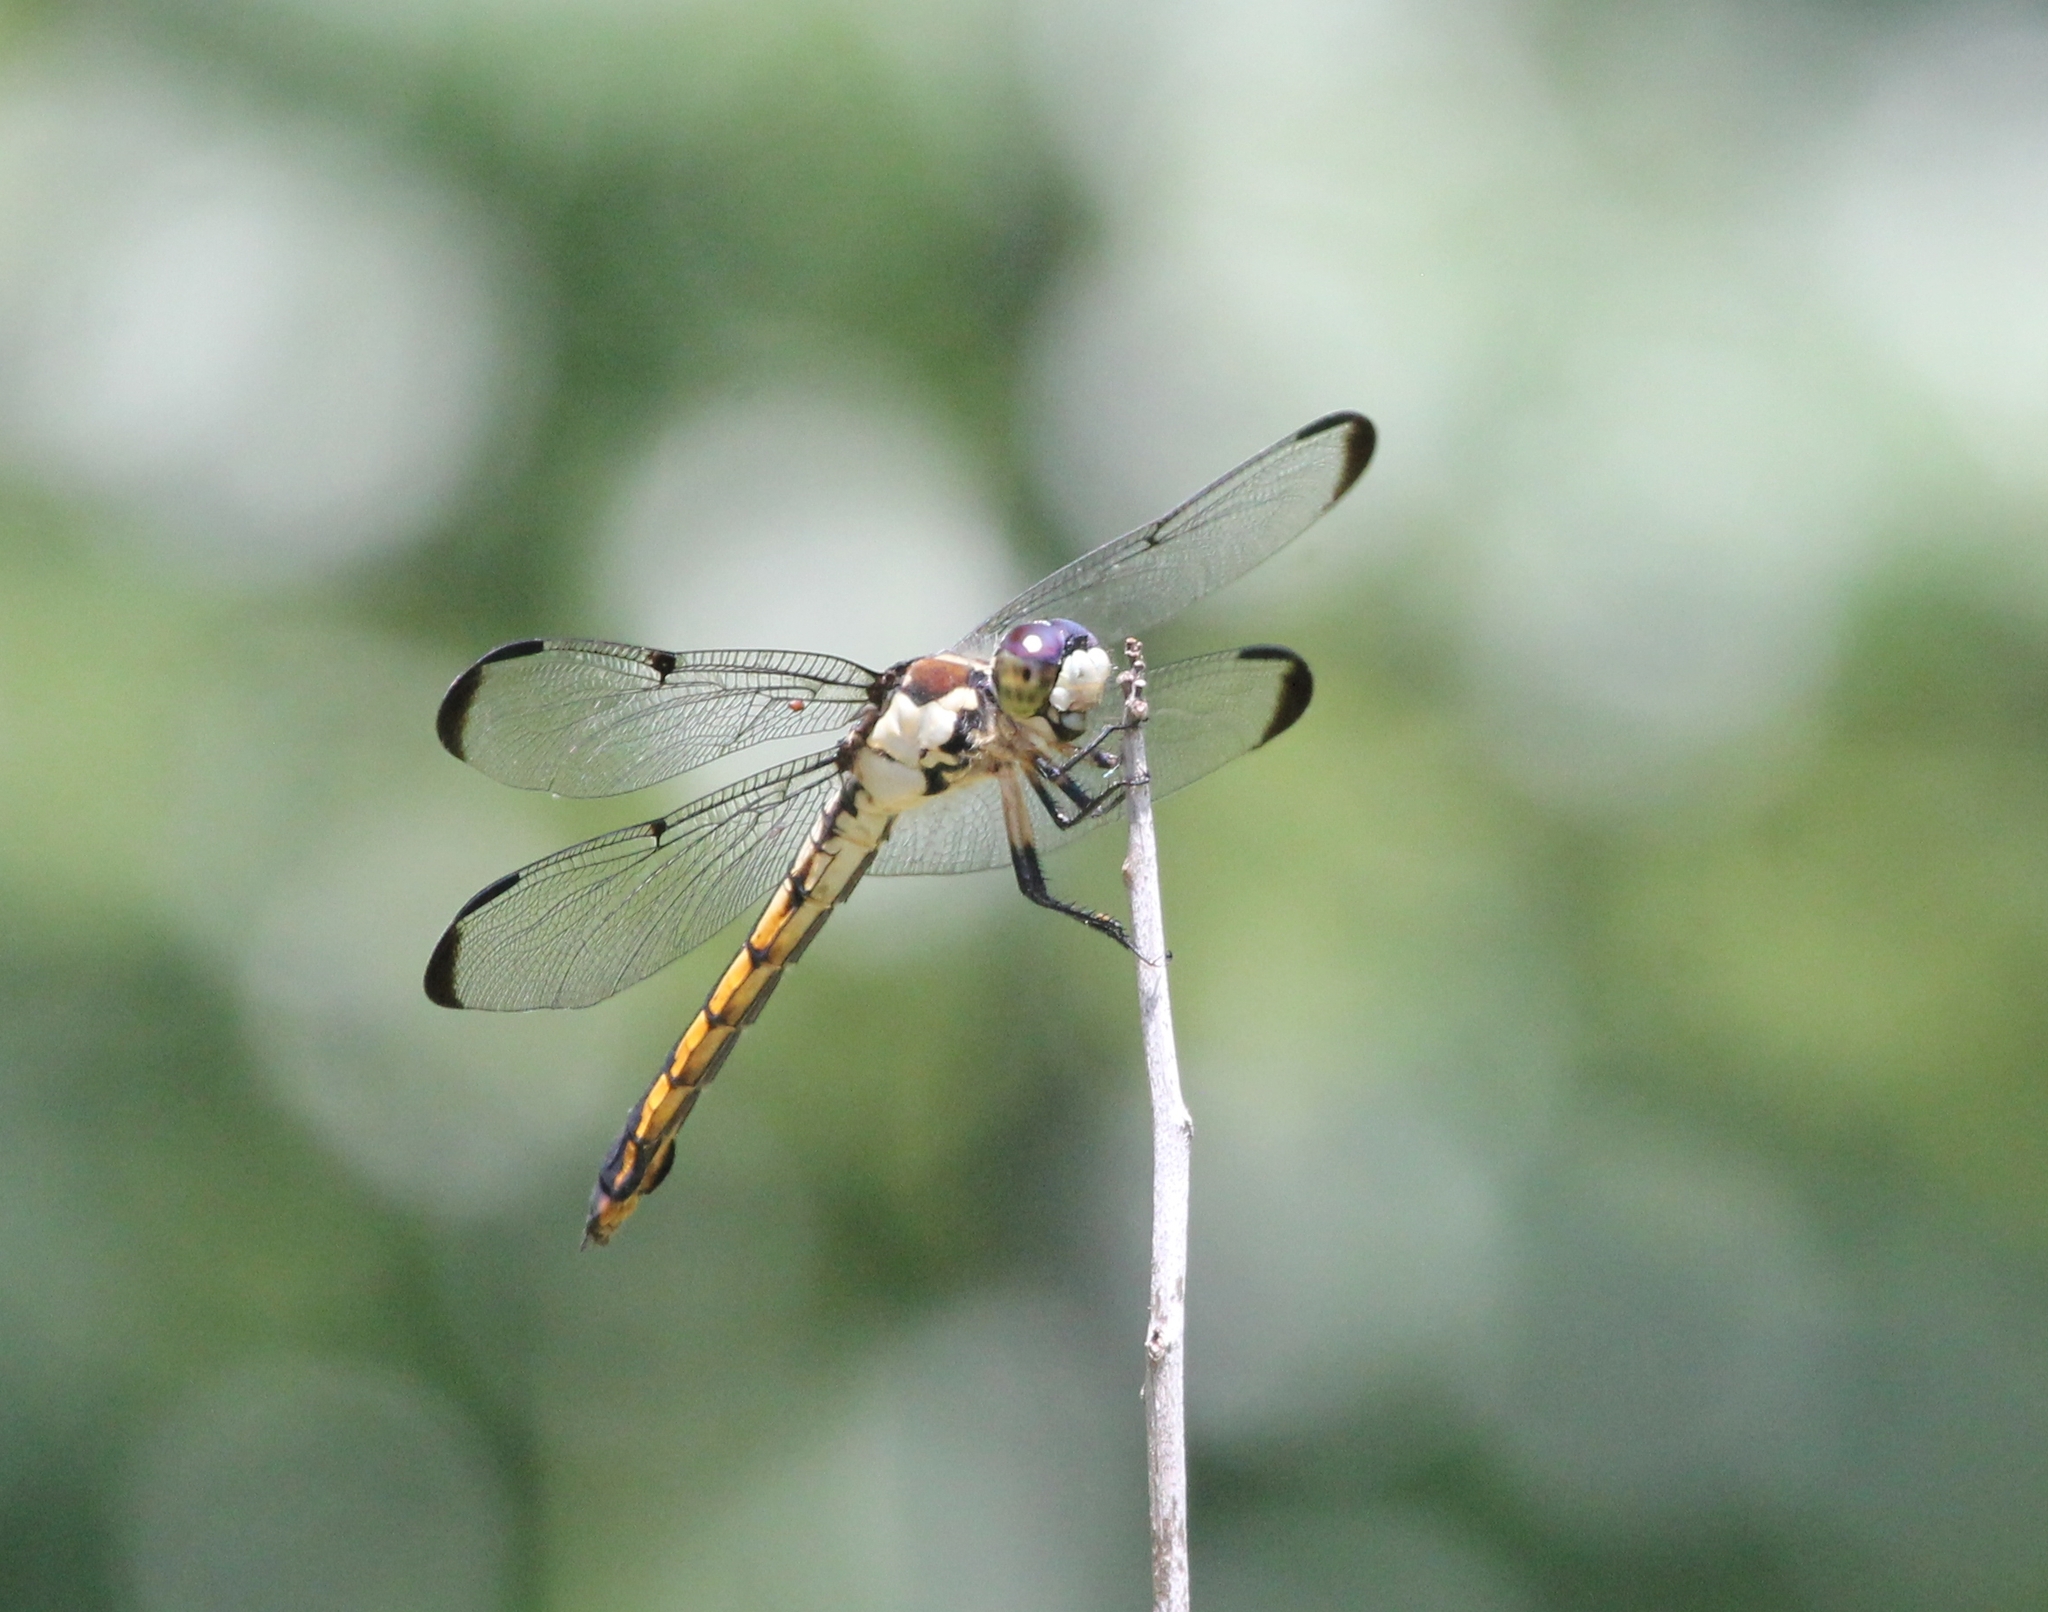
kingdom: Animalia
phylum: Arthropoda
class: Insecta
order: Odonata
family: Libellulidae
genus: Libellula
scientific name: Libellula vibrans
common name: Great blue skimmer
